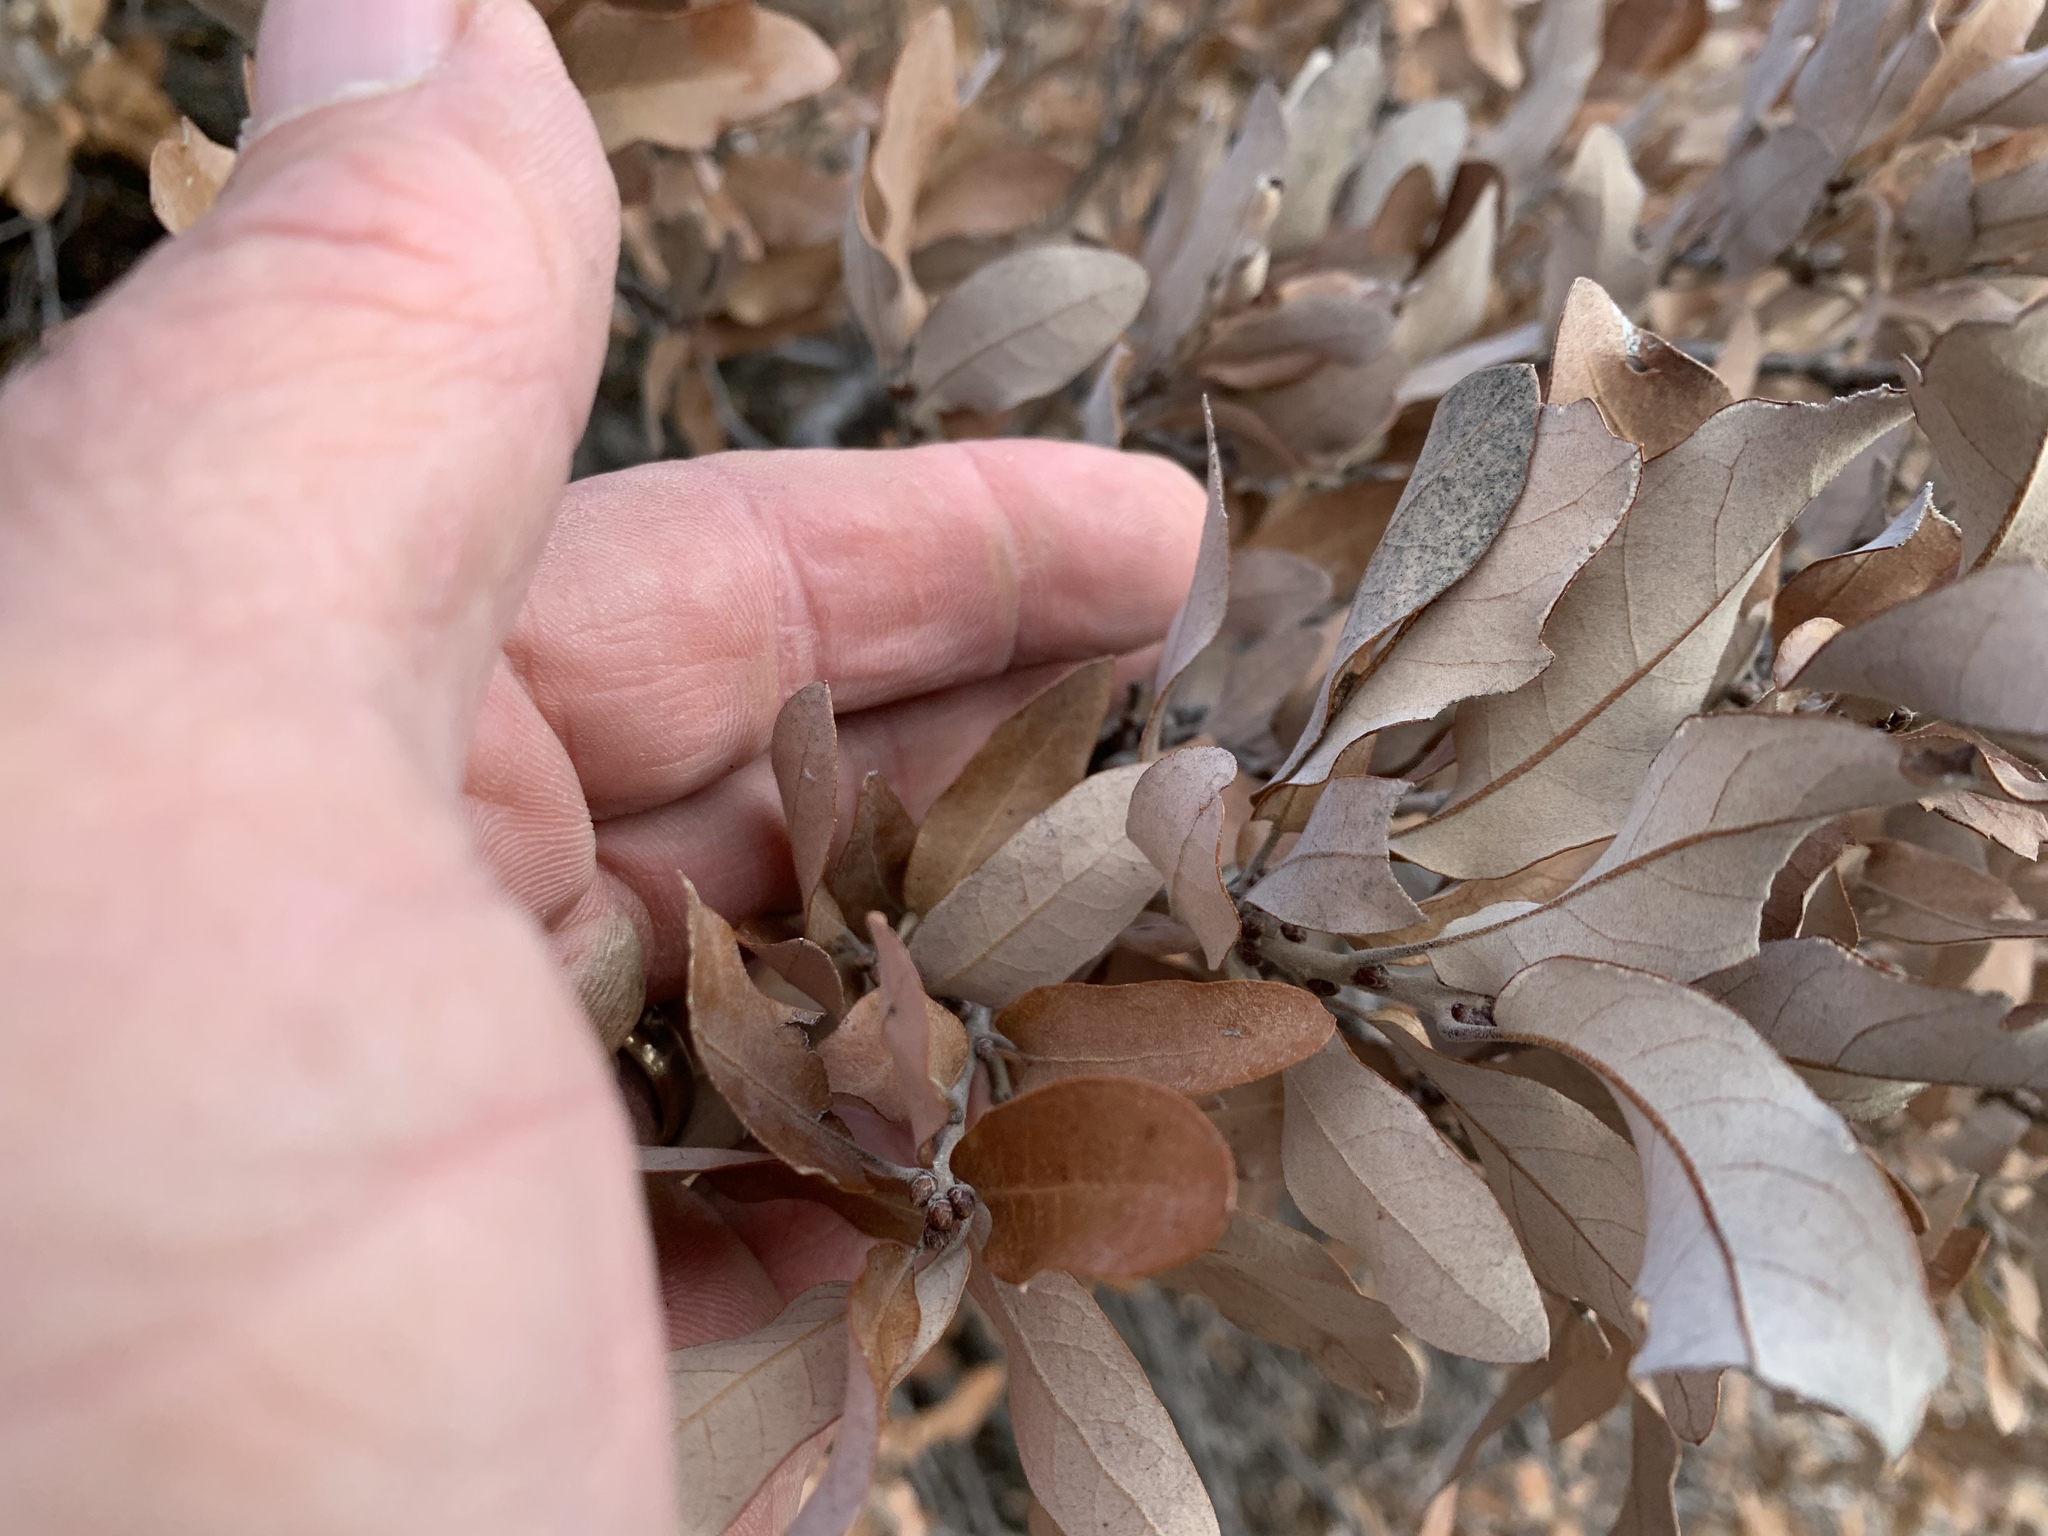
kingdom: Plantae
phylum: Tracheophyta
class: Magnoliopsida
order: Fagales
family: Fagaceae
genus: Quercus
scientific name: Quercus mohriana
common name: Mohr oak
